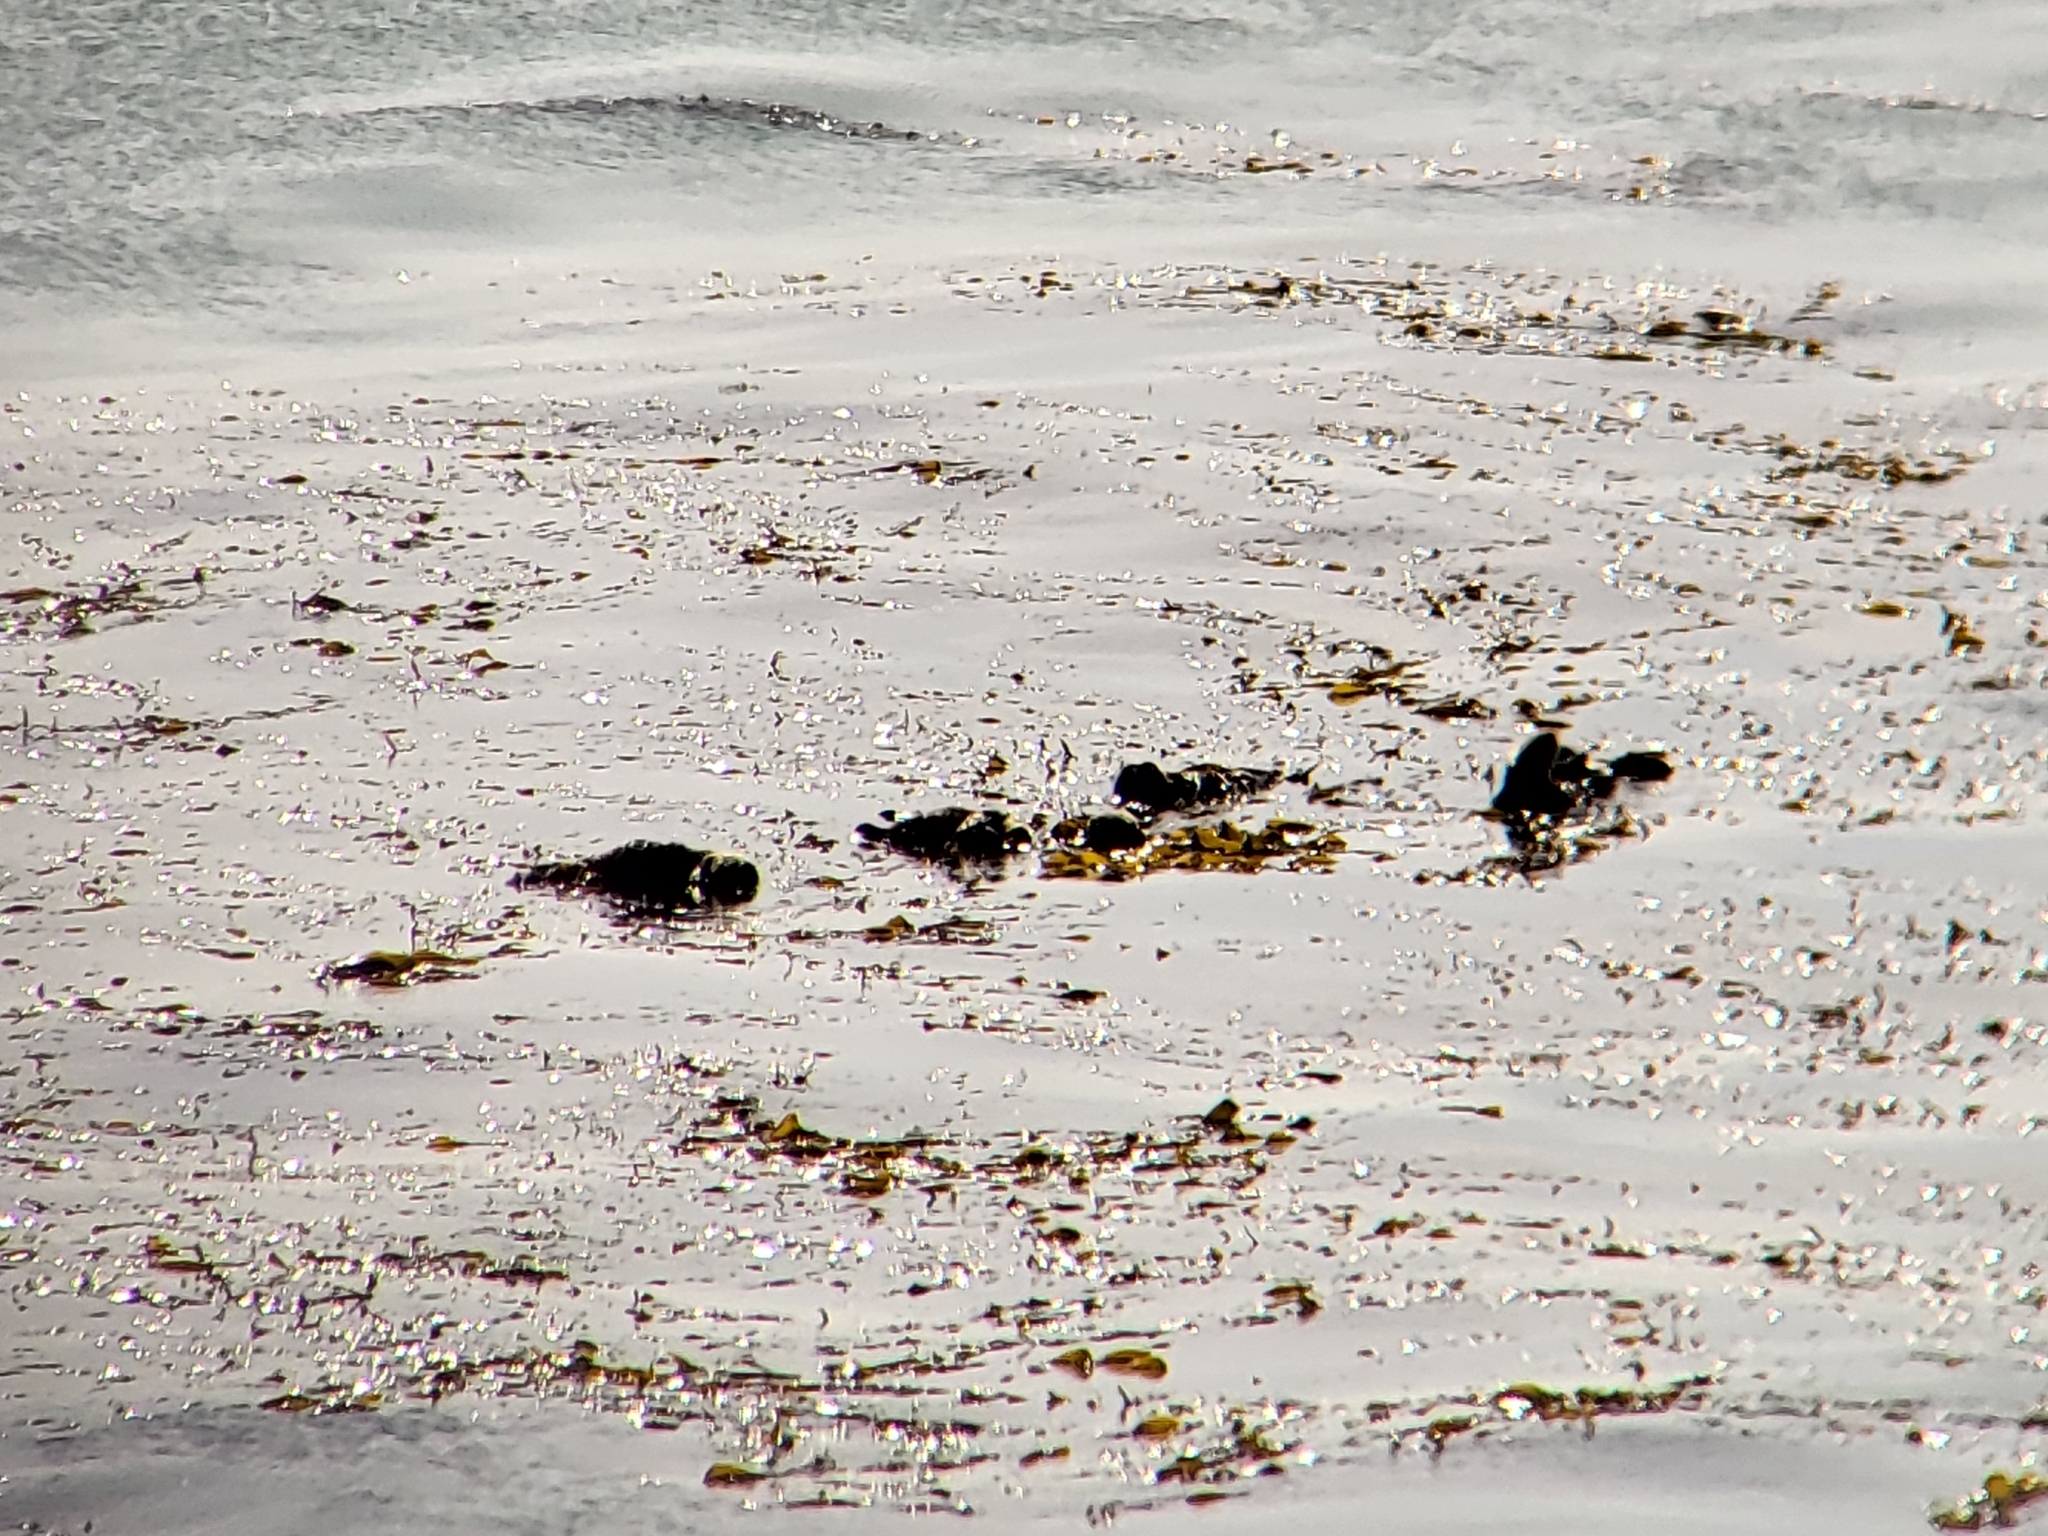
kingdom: Animalia
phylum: Chordata
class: Mammalia
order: Carnivora
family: Mustelidae
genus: Enhydra
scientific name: Enhydra lutris
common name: Sea otter
